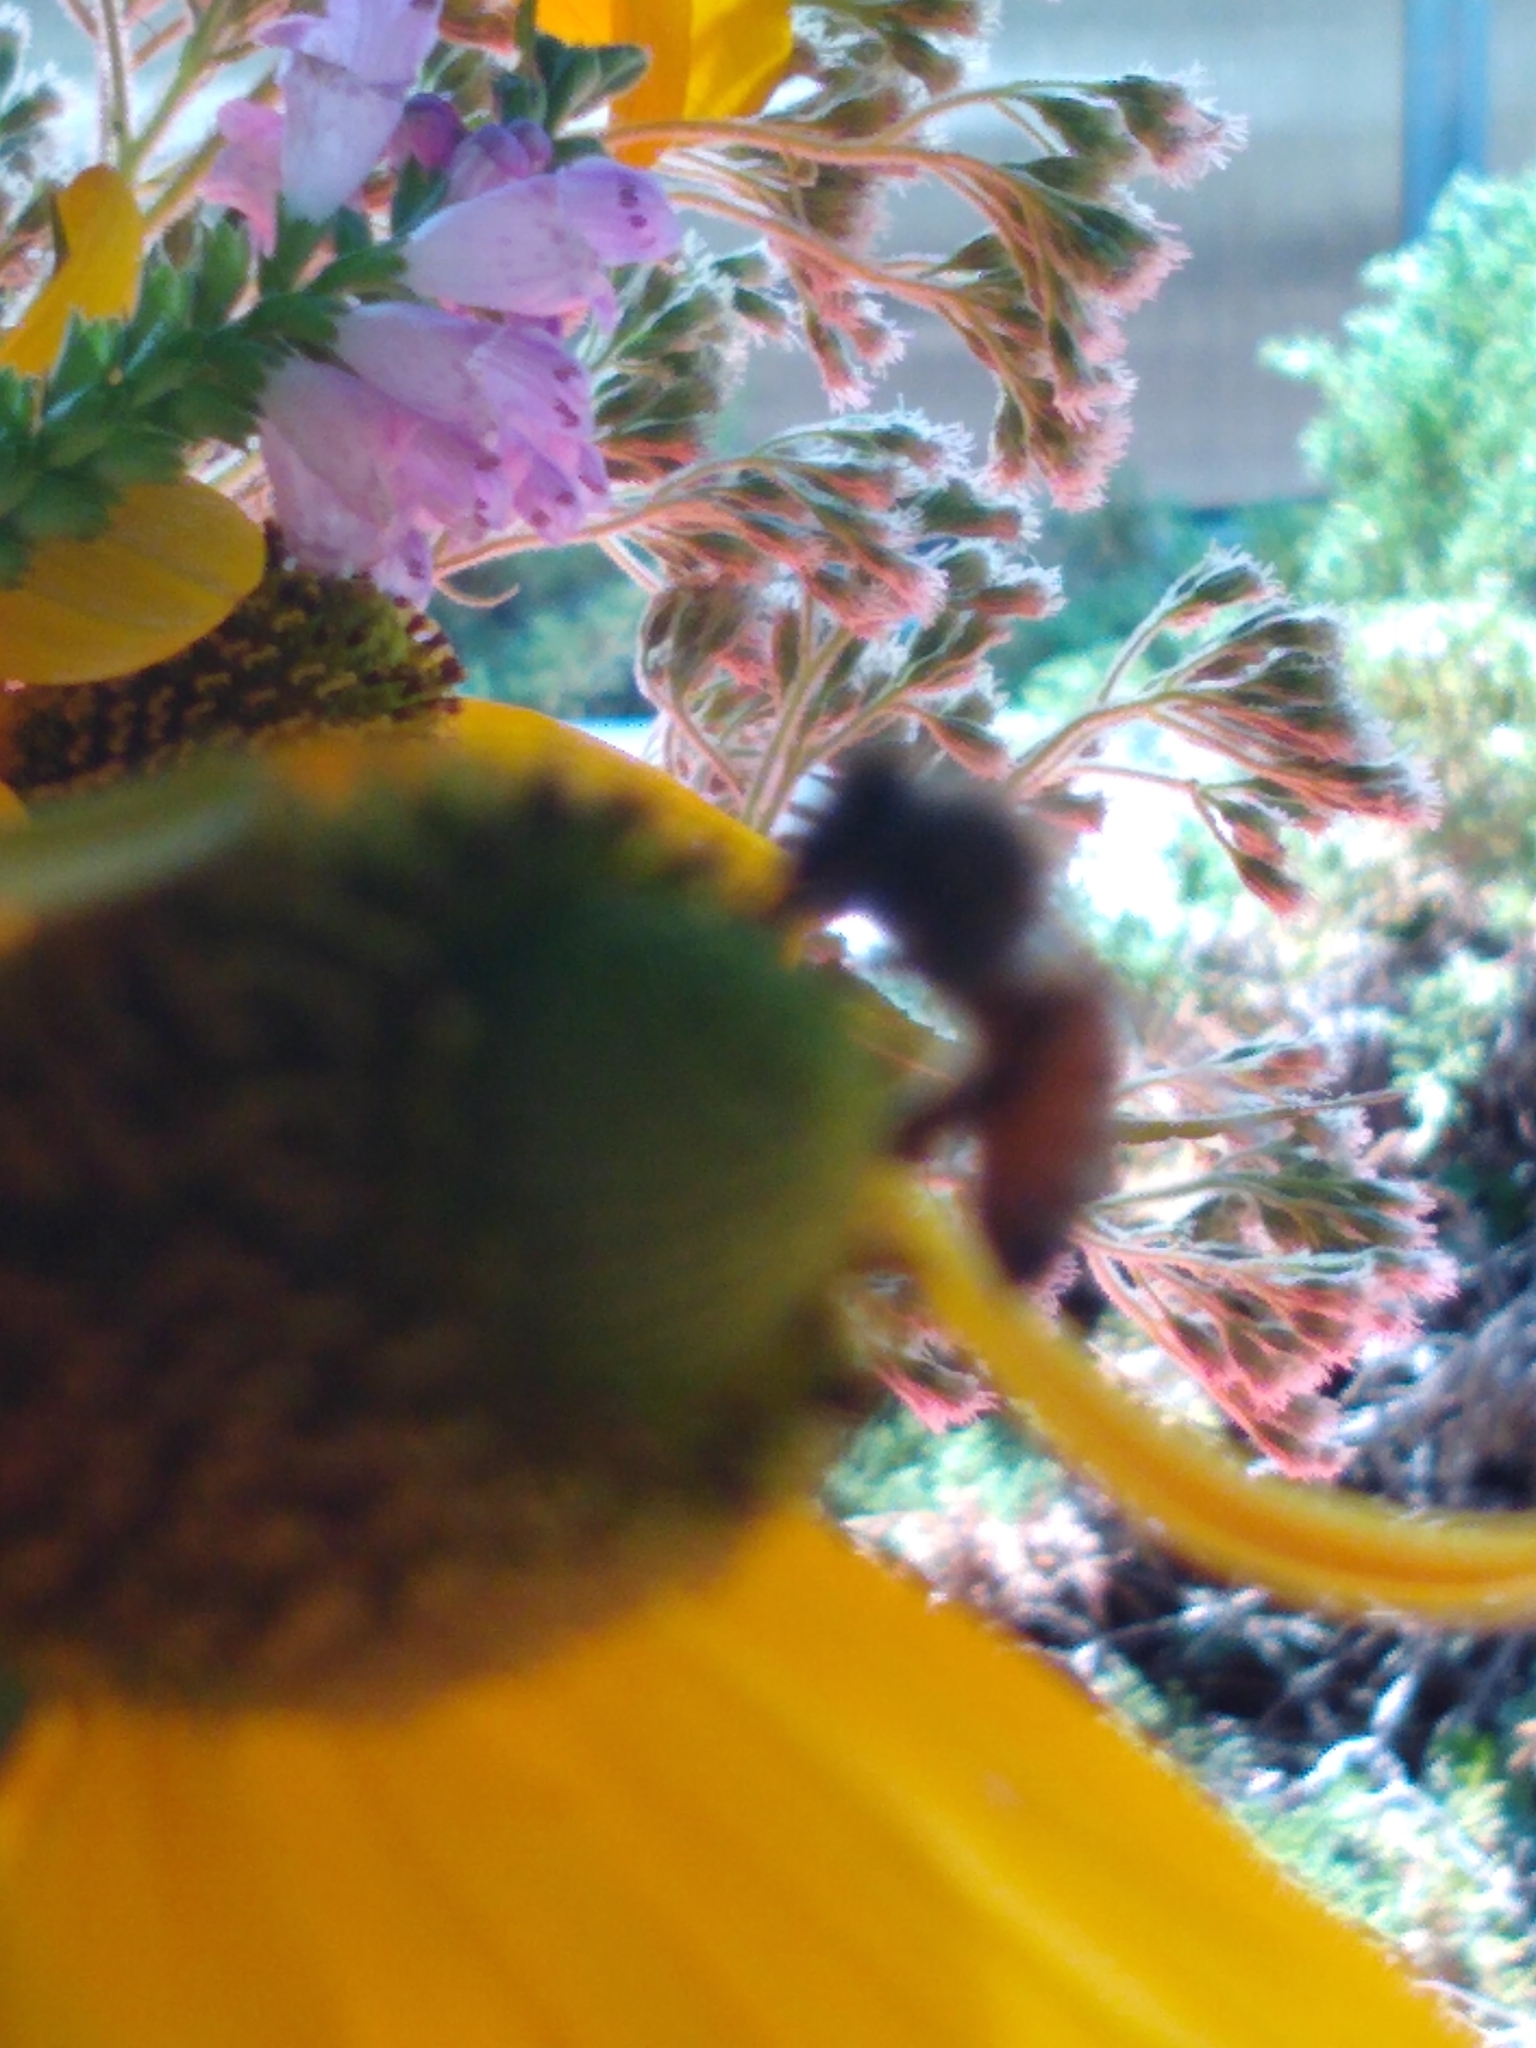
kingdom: Animalia
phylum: Arthropoda
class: Insecta
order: Hymenoptera
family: Apidae
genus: Apis
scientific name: Apis mellifera
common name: Honey bee
